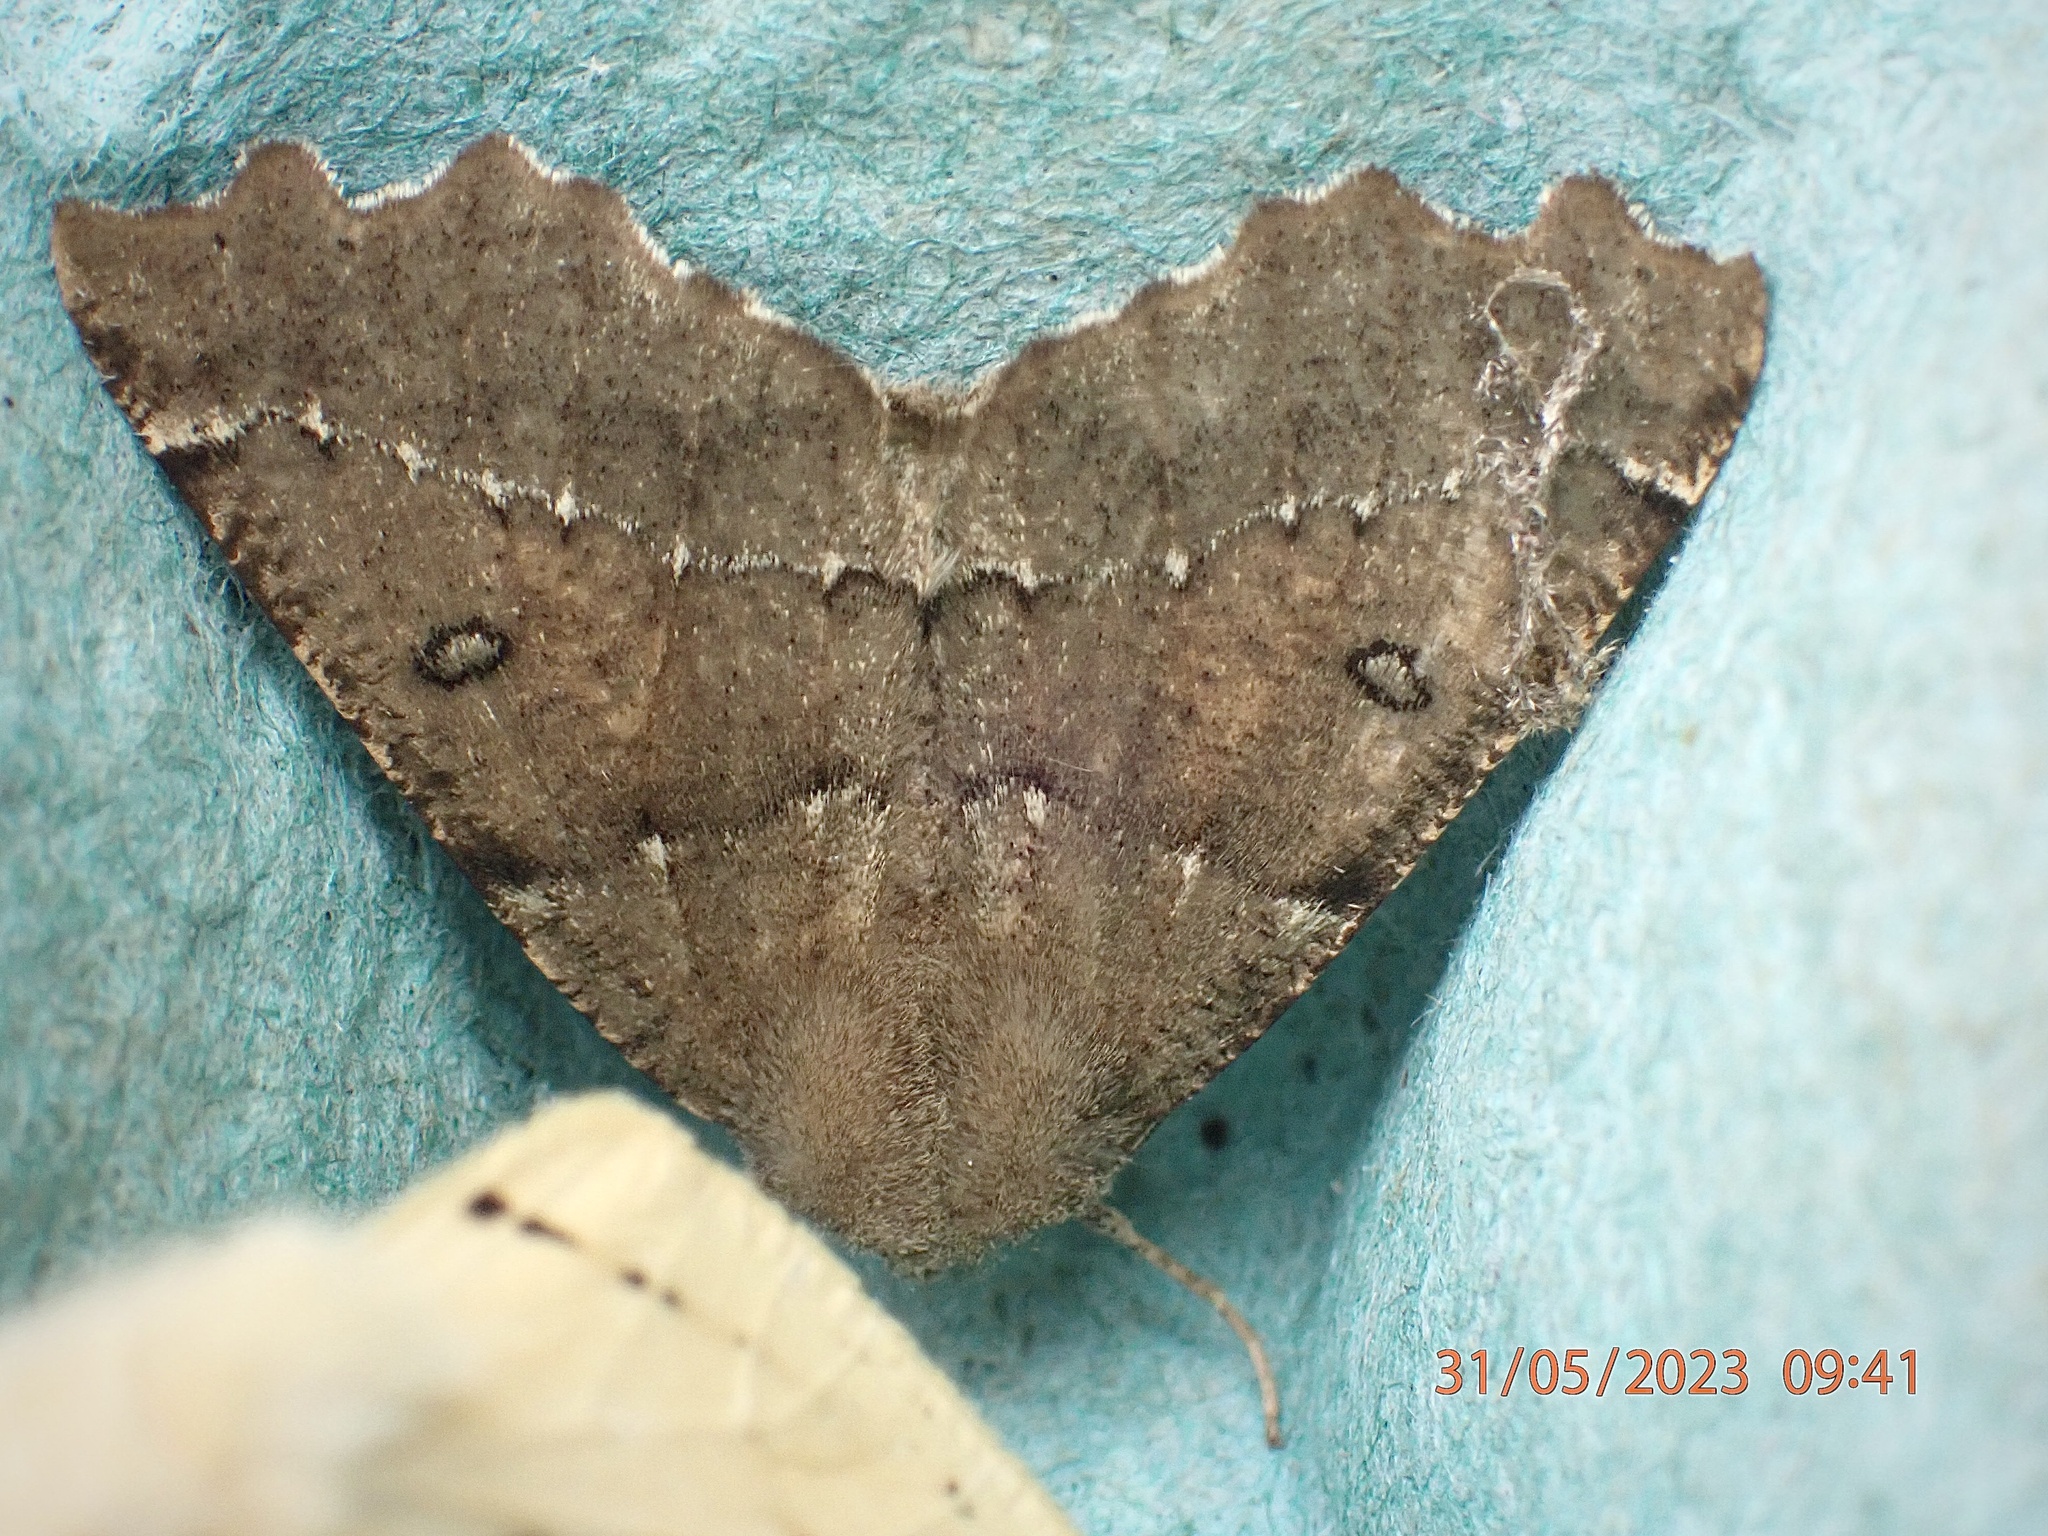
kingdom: Animalia
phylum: Arthropoda
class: Insecta
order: Lepidoptera
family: Geometridae
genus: Odontopera
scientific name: Odontopera bidentata
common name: Scalloped hazel
